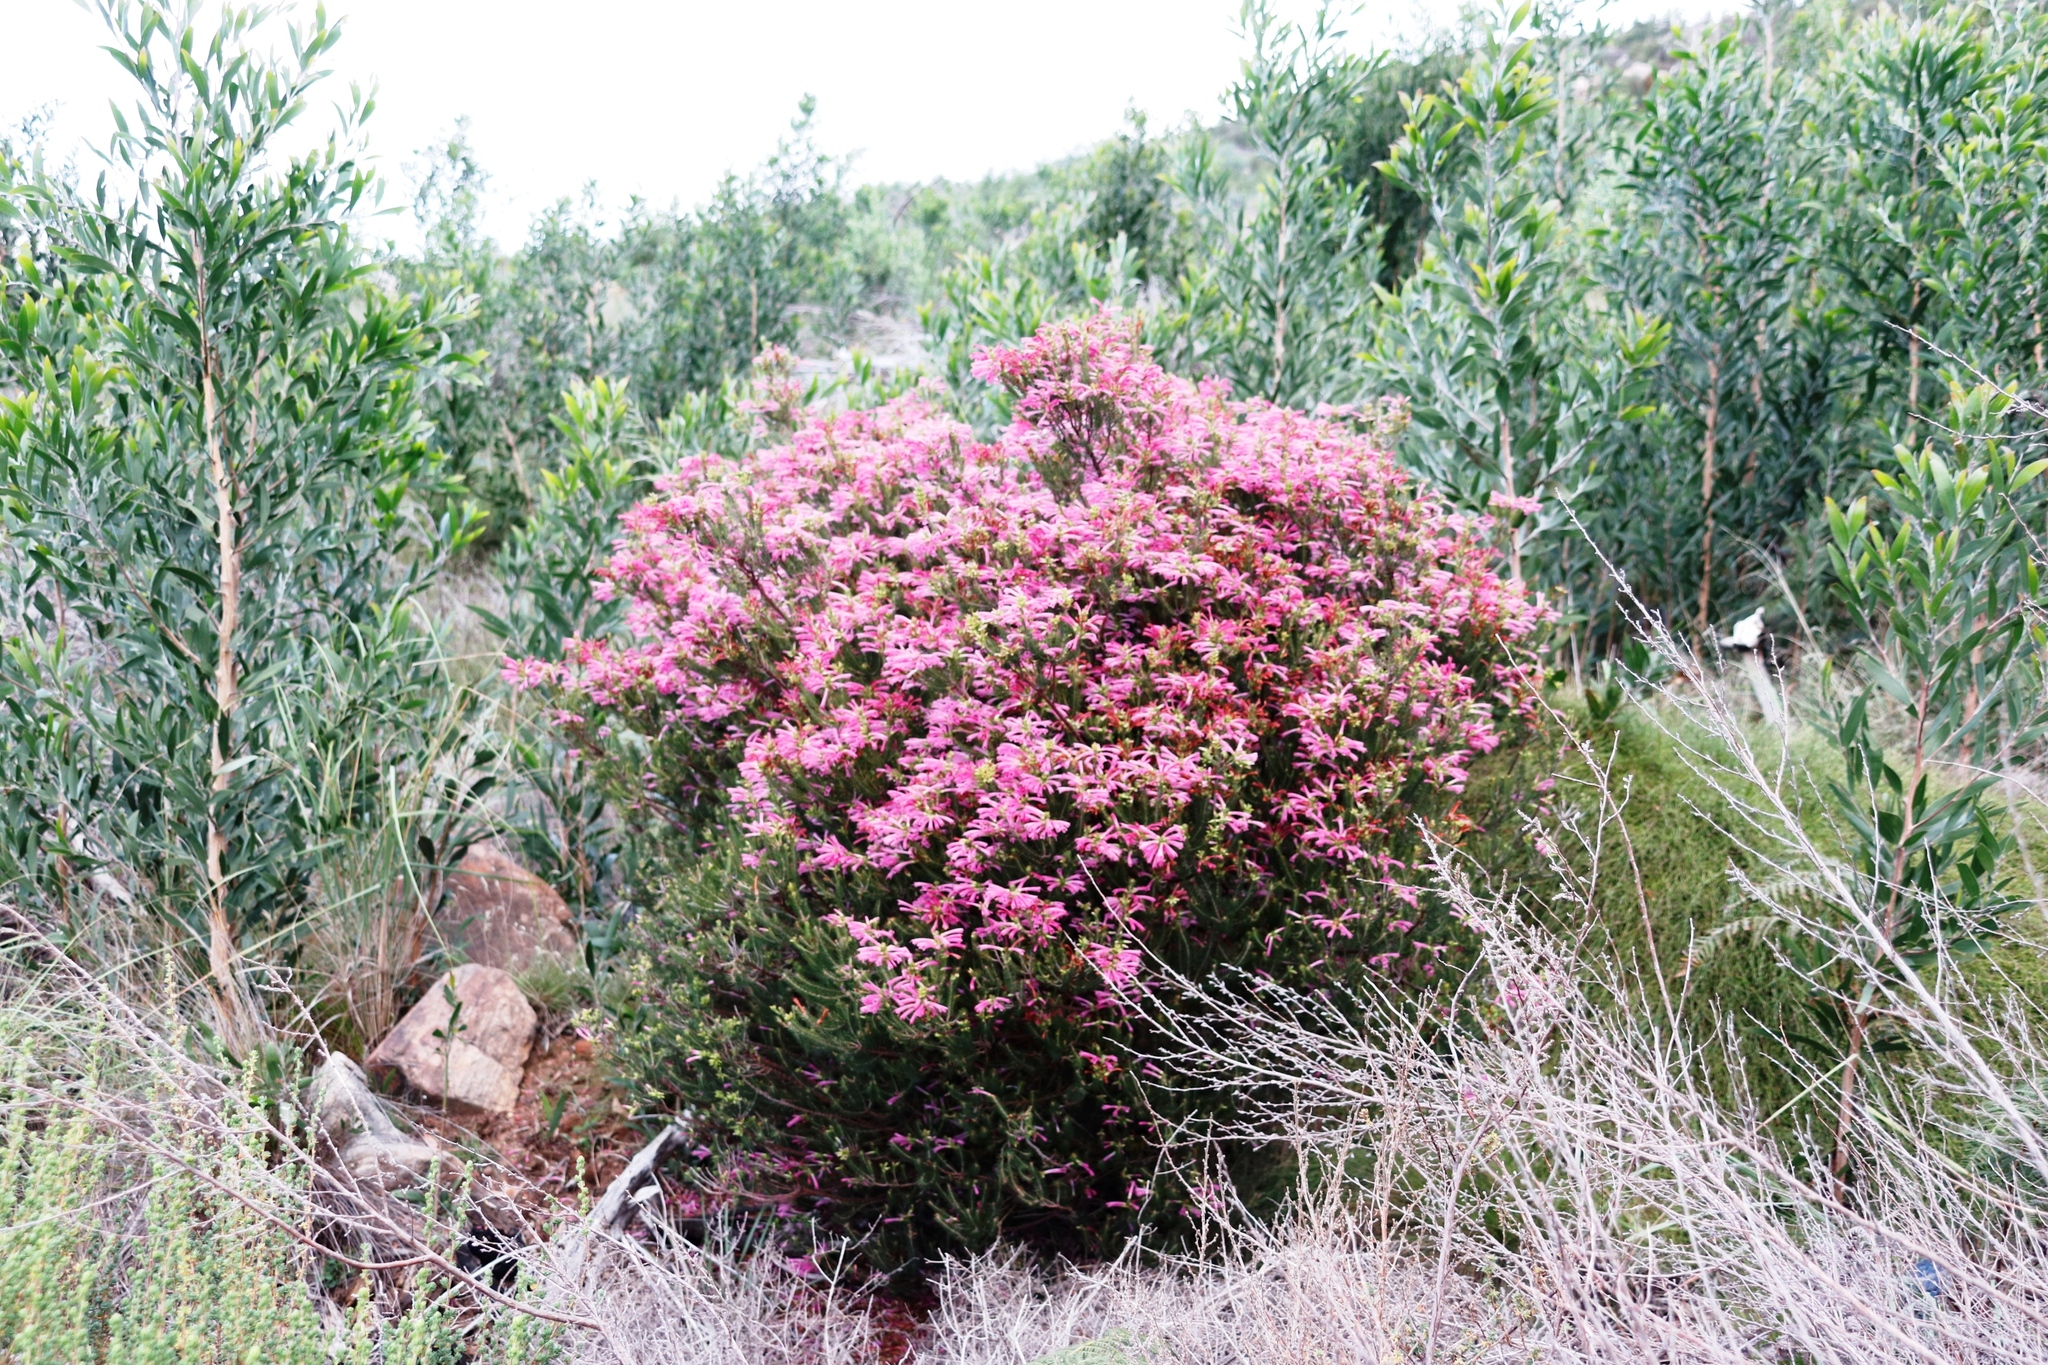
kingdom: Plantae
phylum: Tracheophyta
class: Magnoliopsida
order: Ericales
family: Ericaceae
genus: Erica
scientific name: Erica abietina
